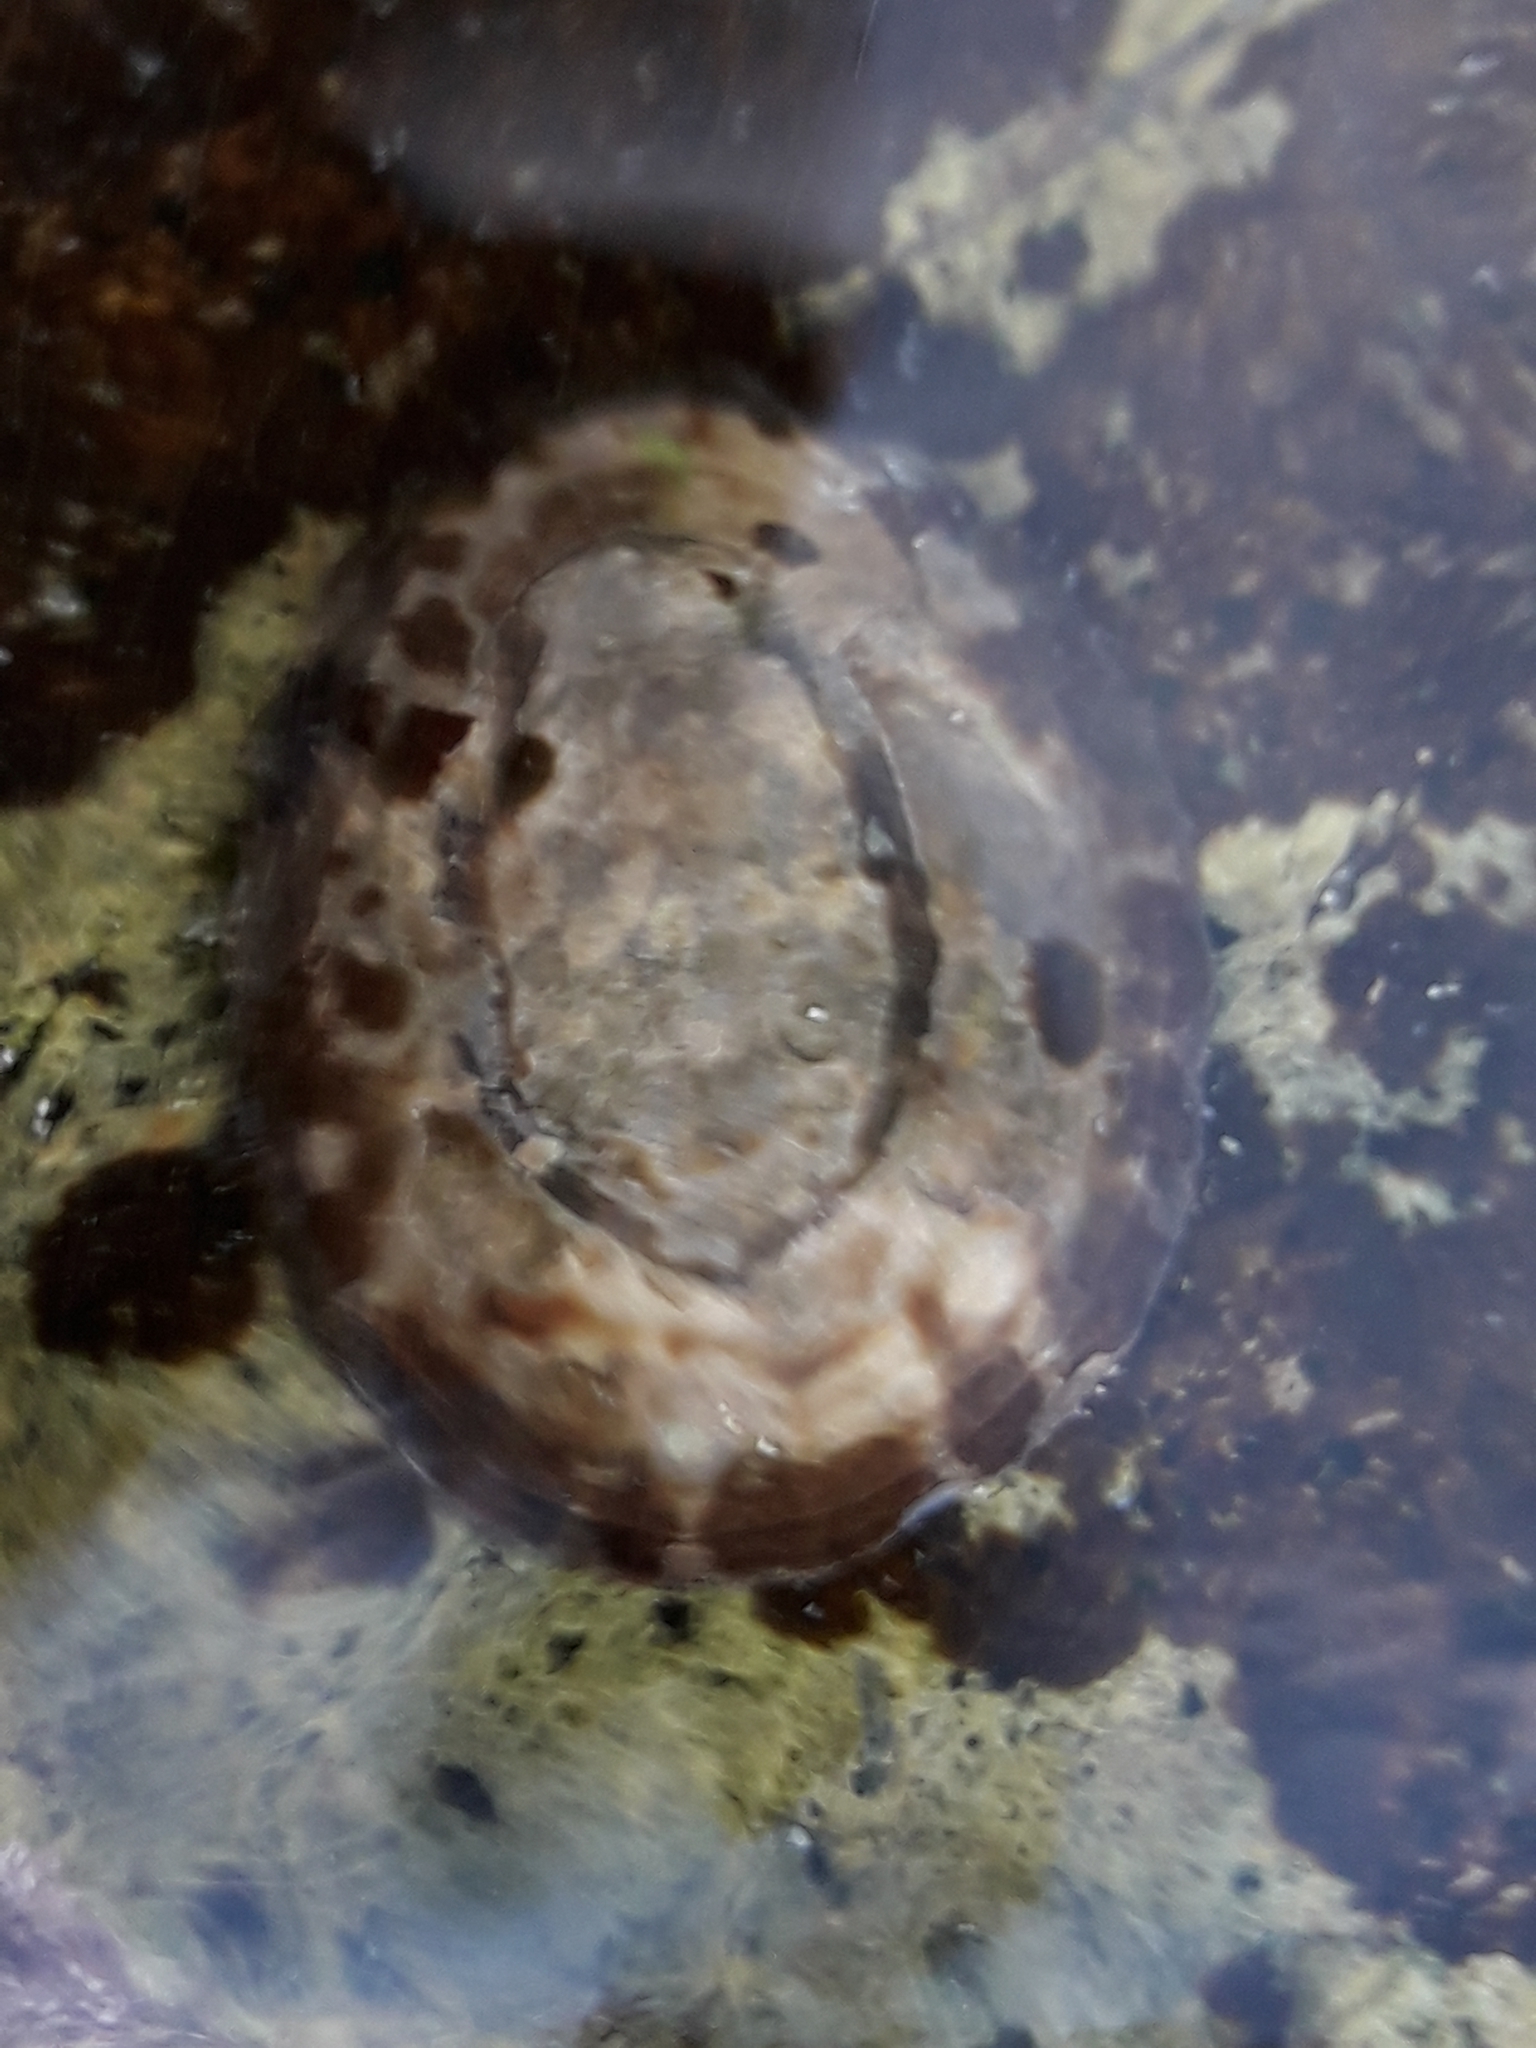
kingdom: Animalia
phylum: Mollusca
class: Gastropoda
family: Nacellidae
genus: Cellana
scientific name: Cellana radians
